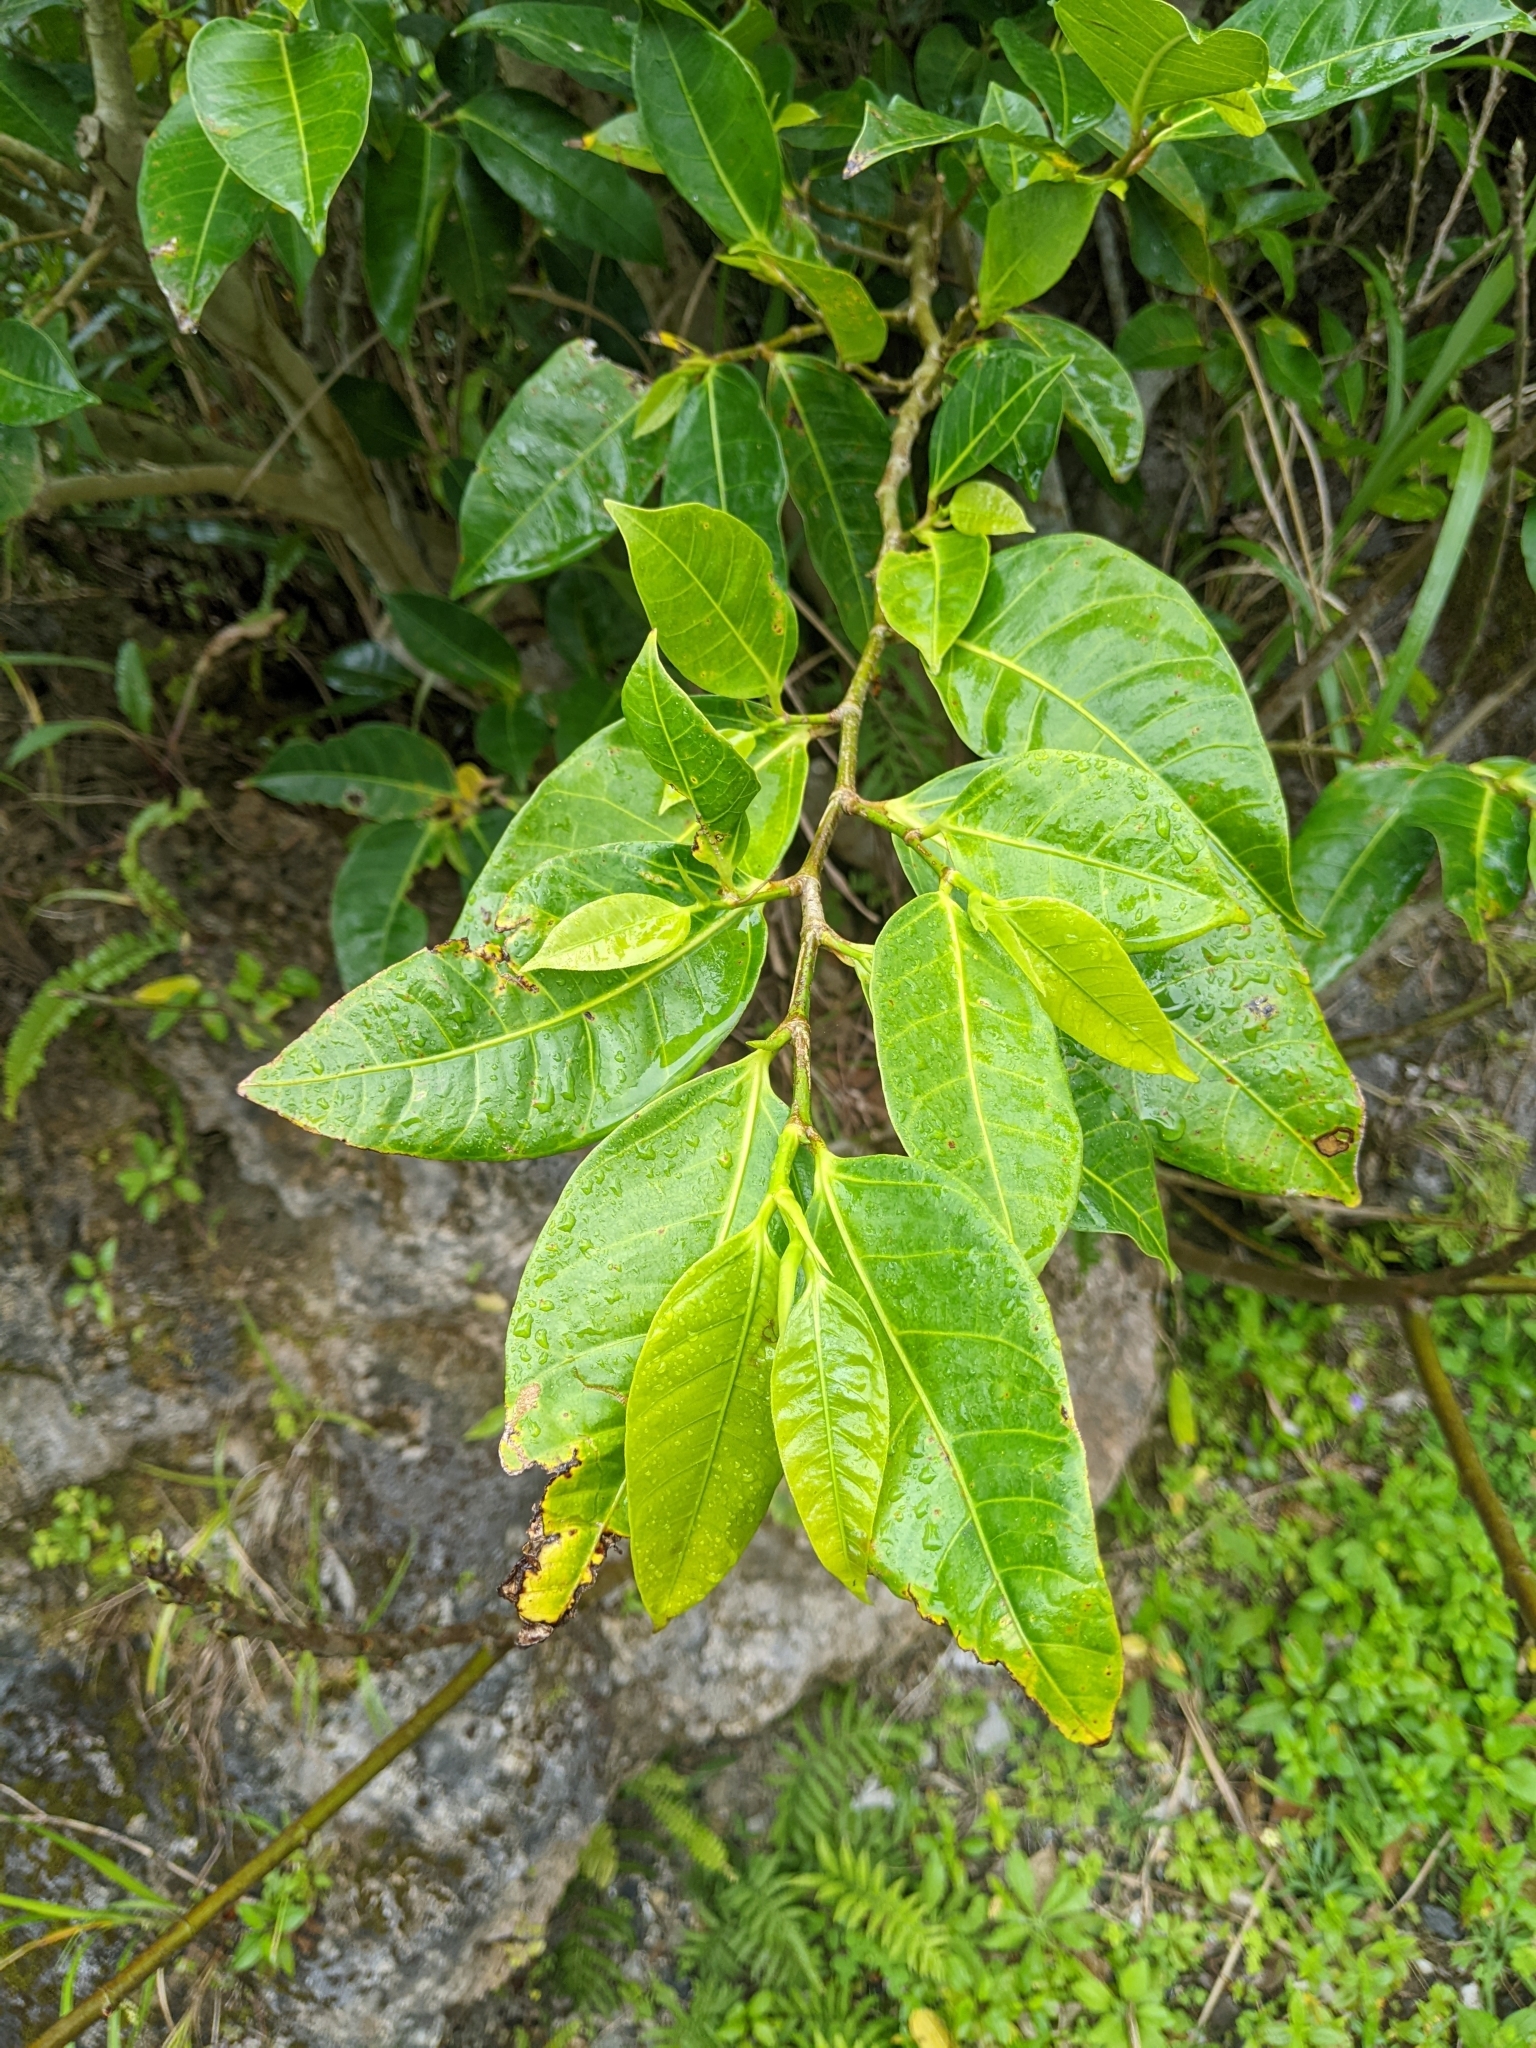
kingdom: Plantae
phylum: Tracheophyta
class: Magnoliopsida
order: Rosales
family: Moraceae
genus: Ficus
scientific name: Ficus virgata
